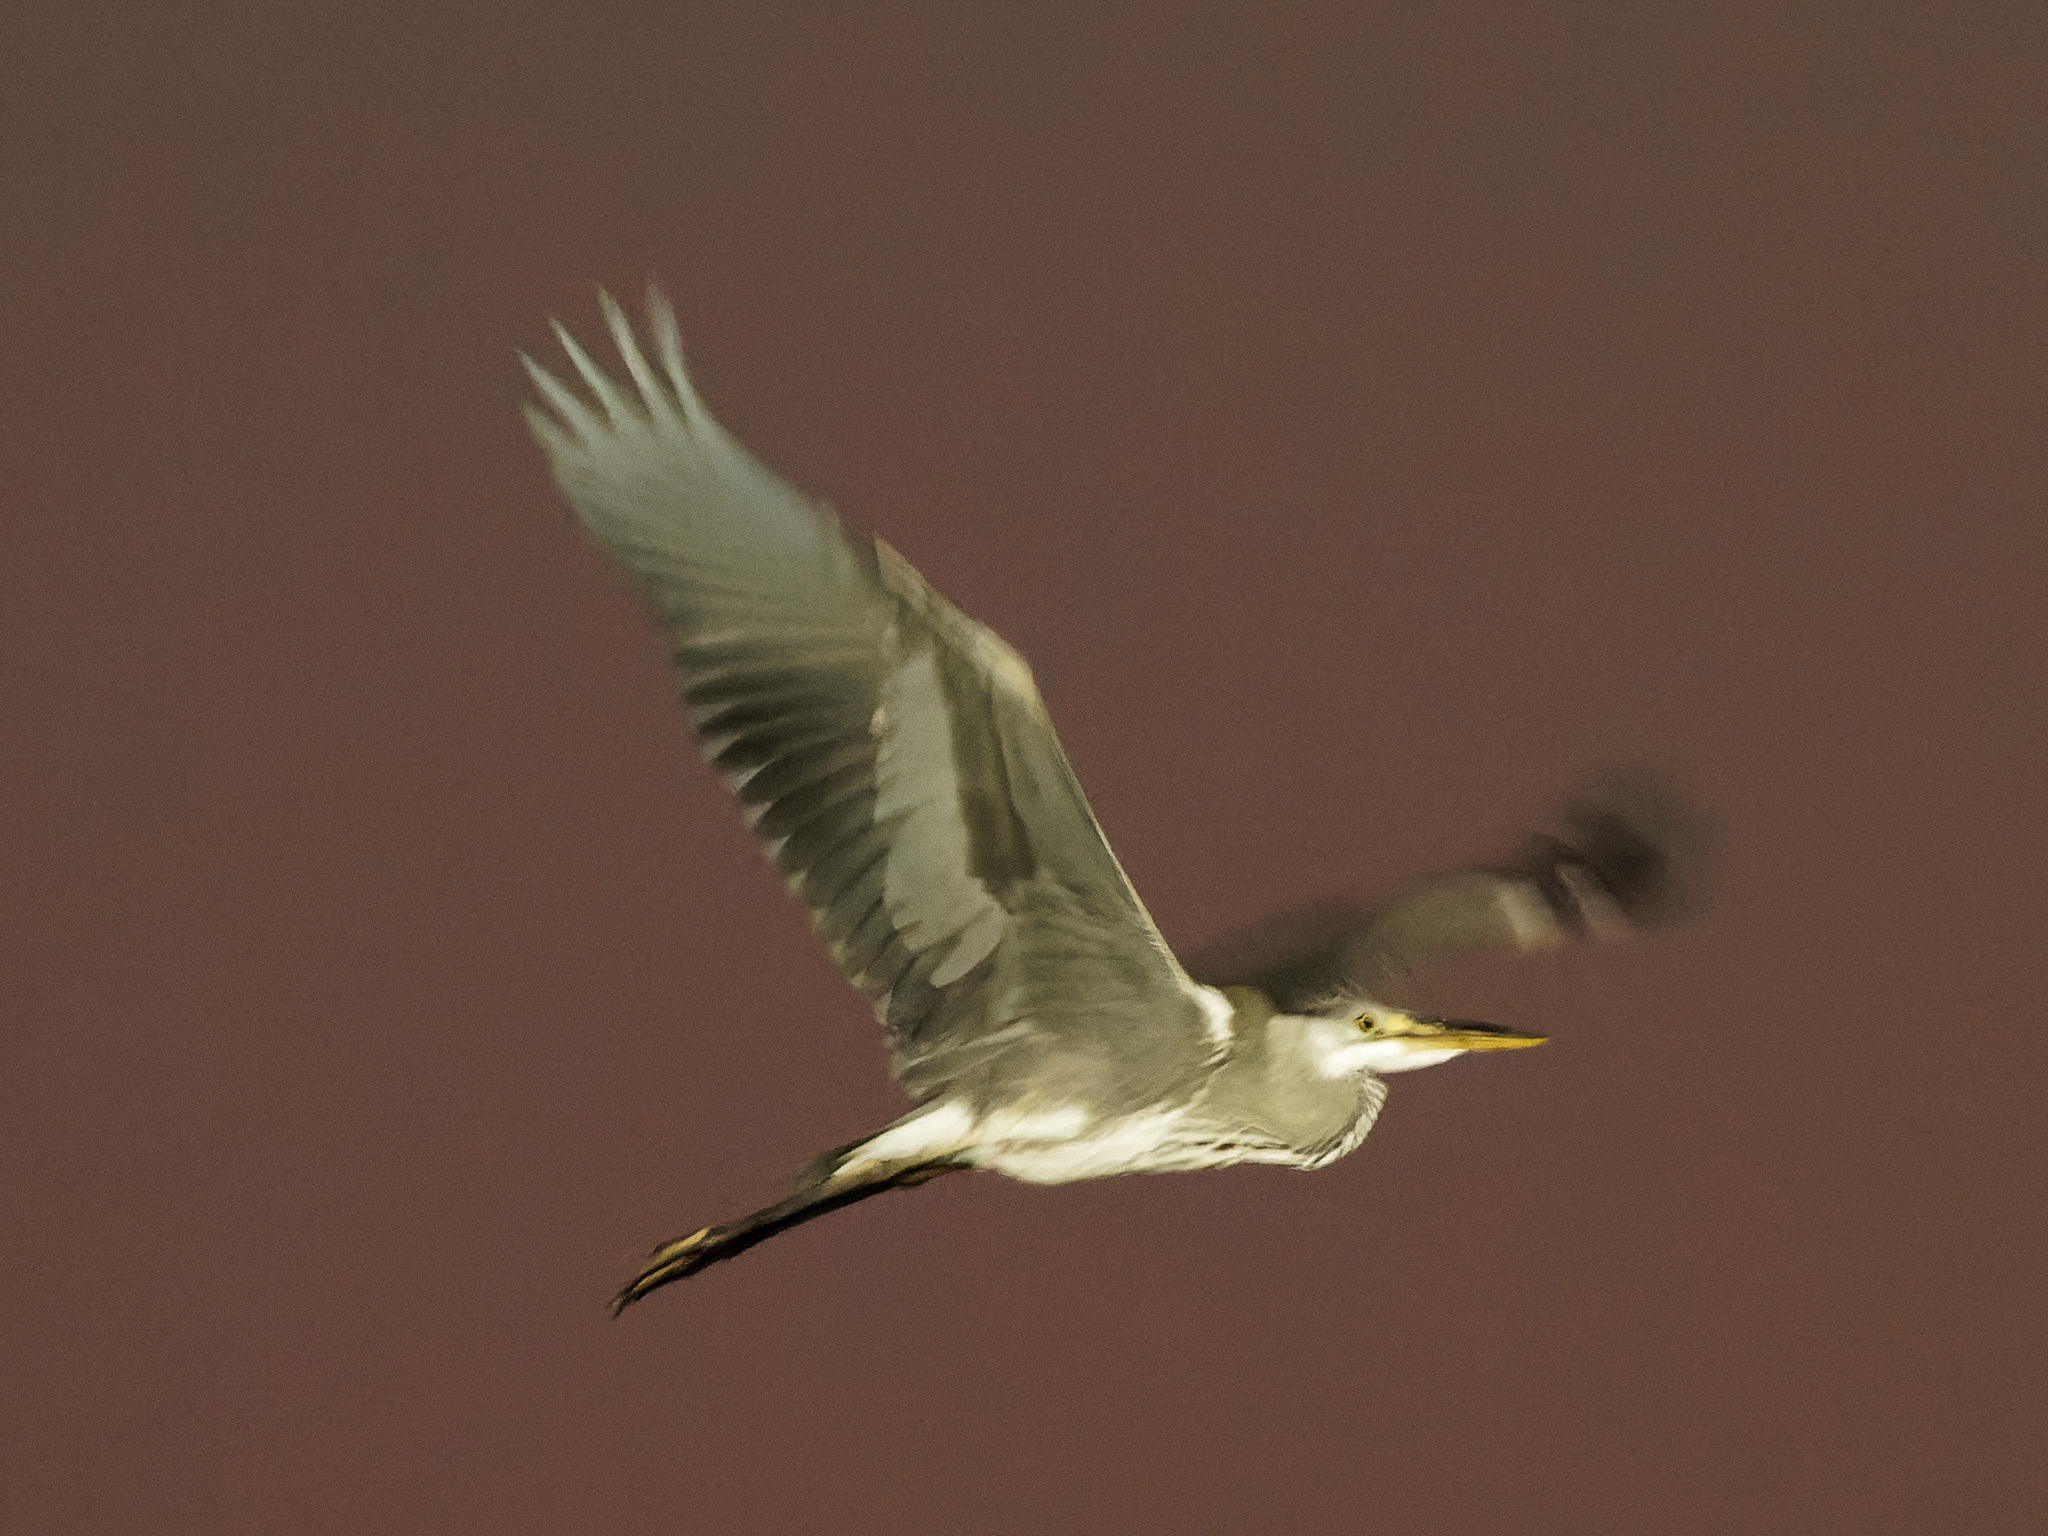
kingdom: Animalia
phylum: Chordata
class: Aves
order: Pelecaniformes
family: Ardeidae
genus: Ardea
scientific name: Ardea cinerea
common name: Grey heron
